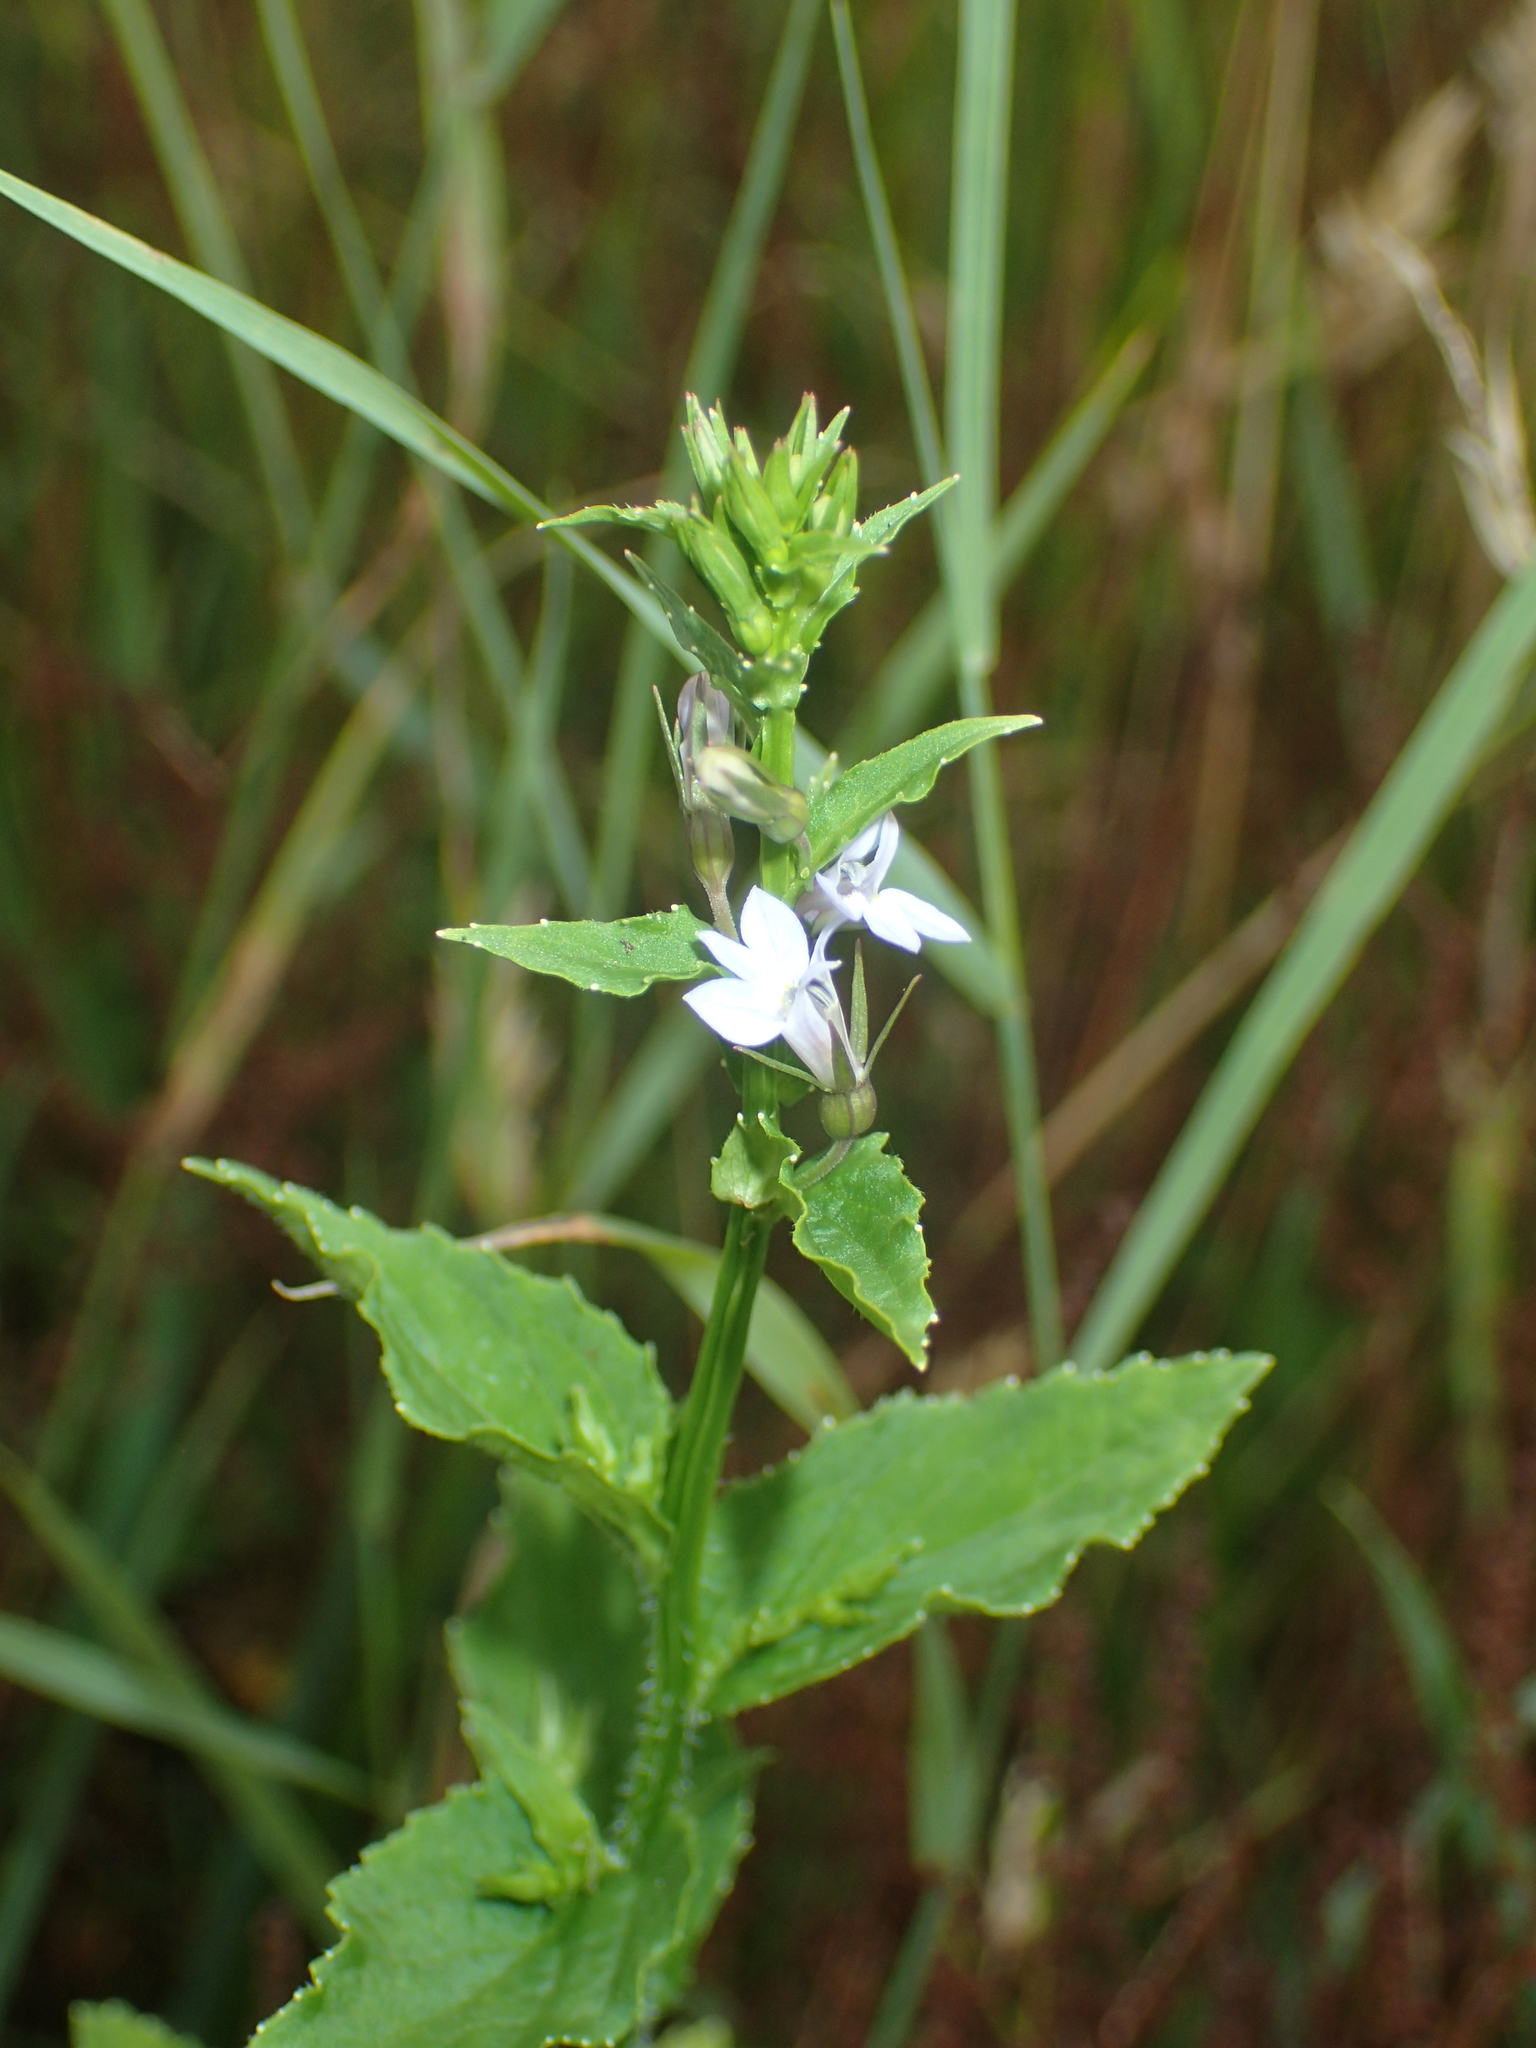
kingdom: Plantae
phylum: Tracheophyta
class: Magnoliopsida
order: Asterales
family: Campanulaceae
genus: Lobelia
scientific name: Lobelia inflata
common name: Indian tobacco
